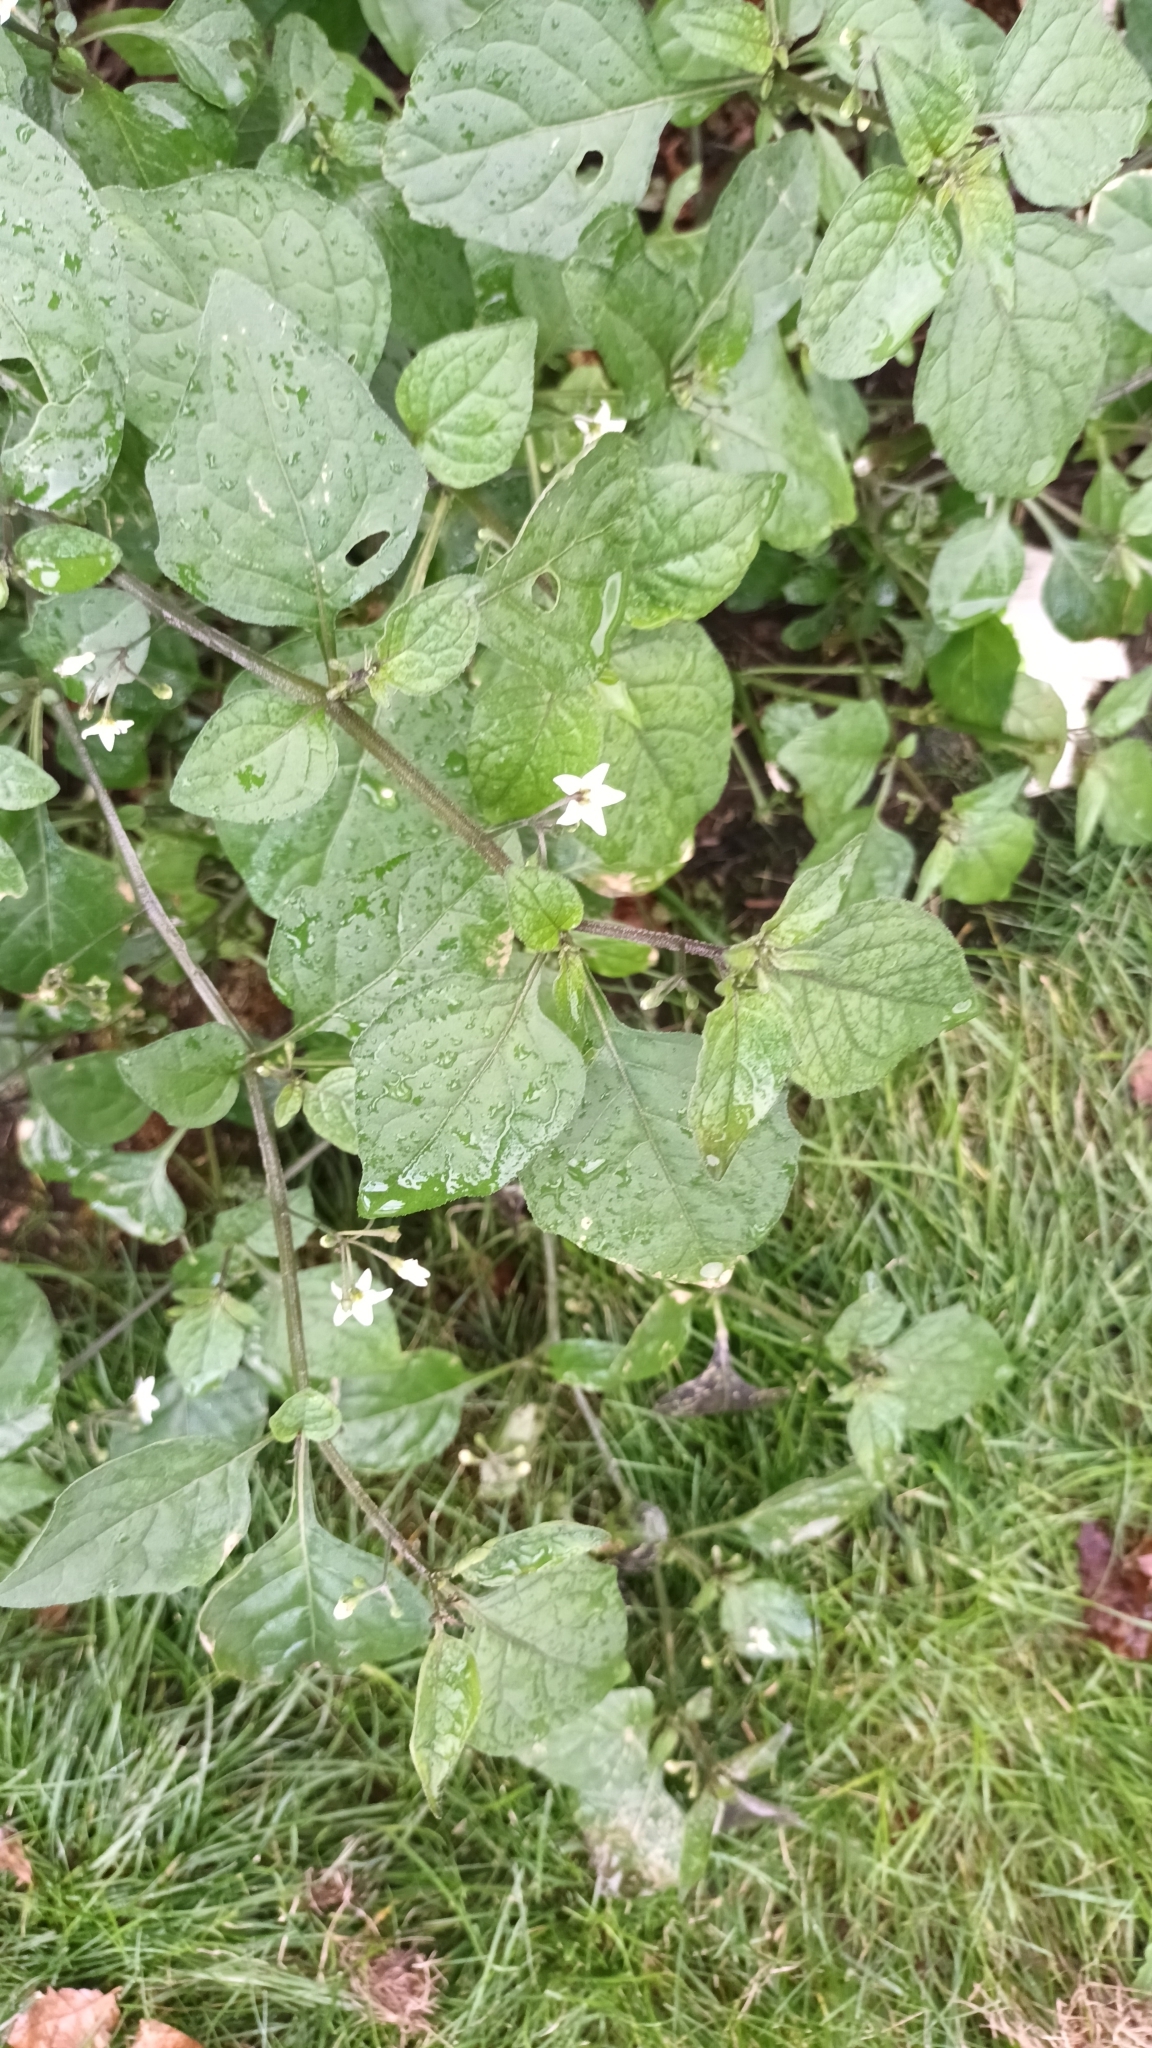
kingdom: Plantae
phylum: Tracheophyta
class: Magnoliopsida
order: Solanales
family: Solanaceae
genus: Solanum
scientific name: Solanum nigrum
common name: Black nightshade
